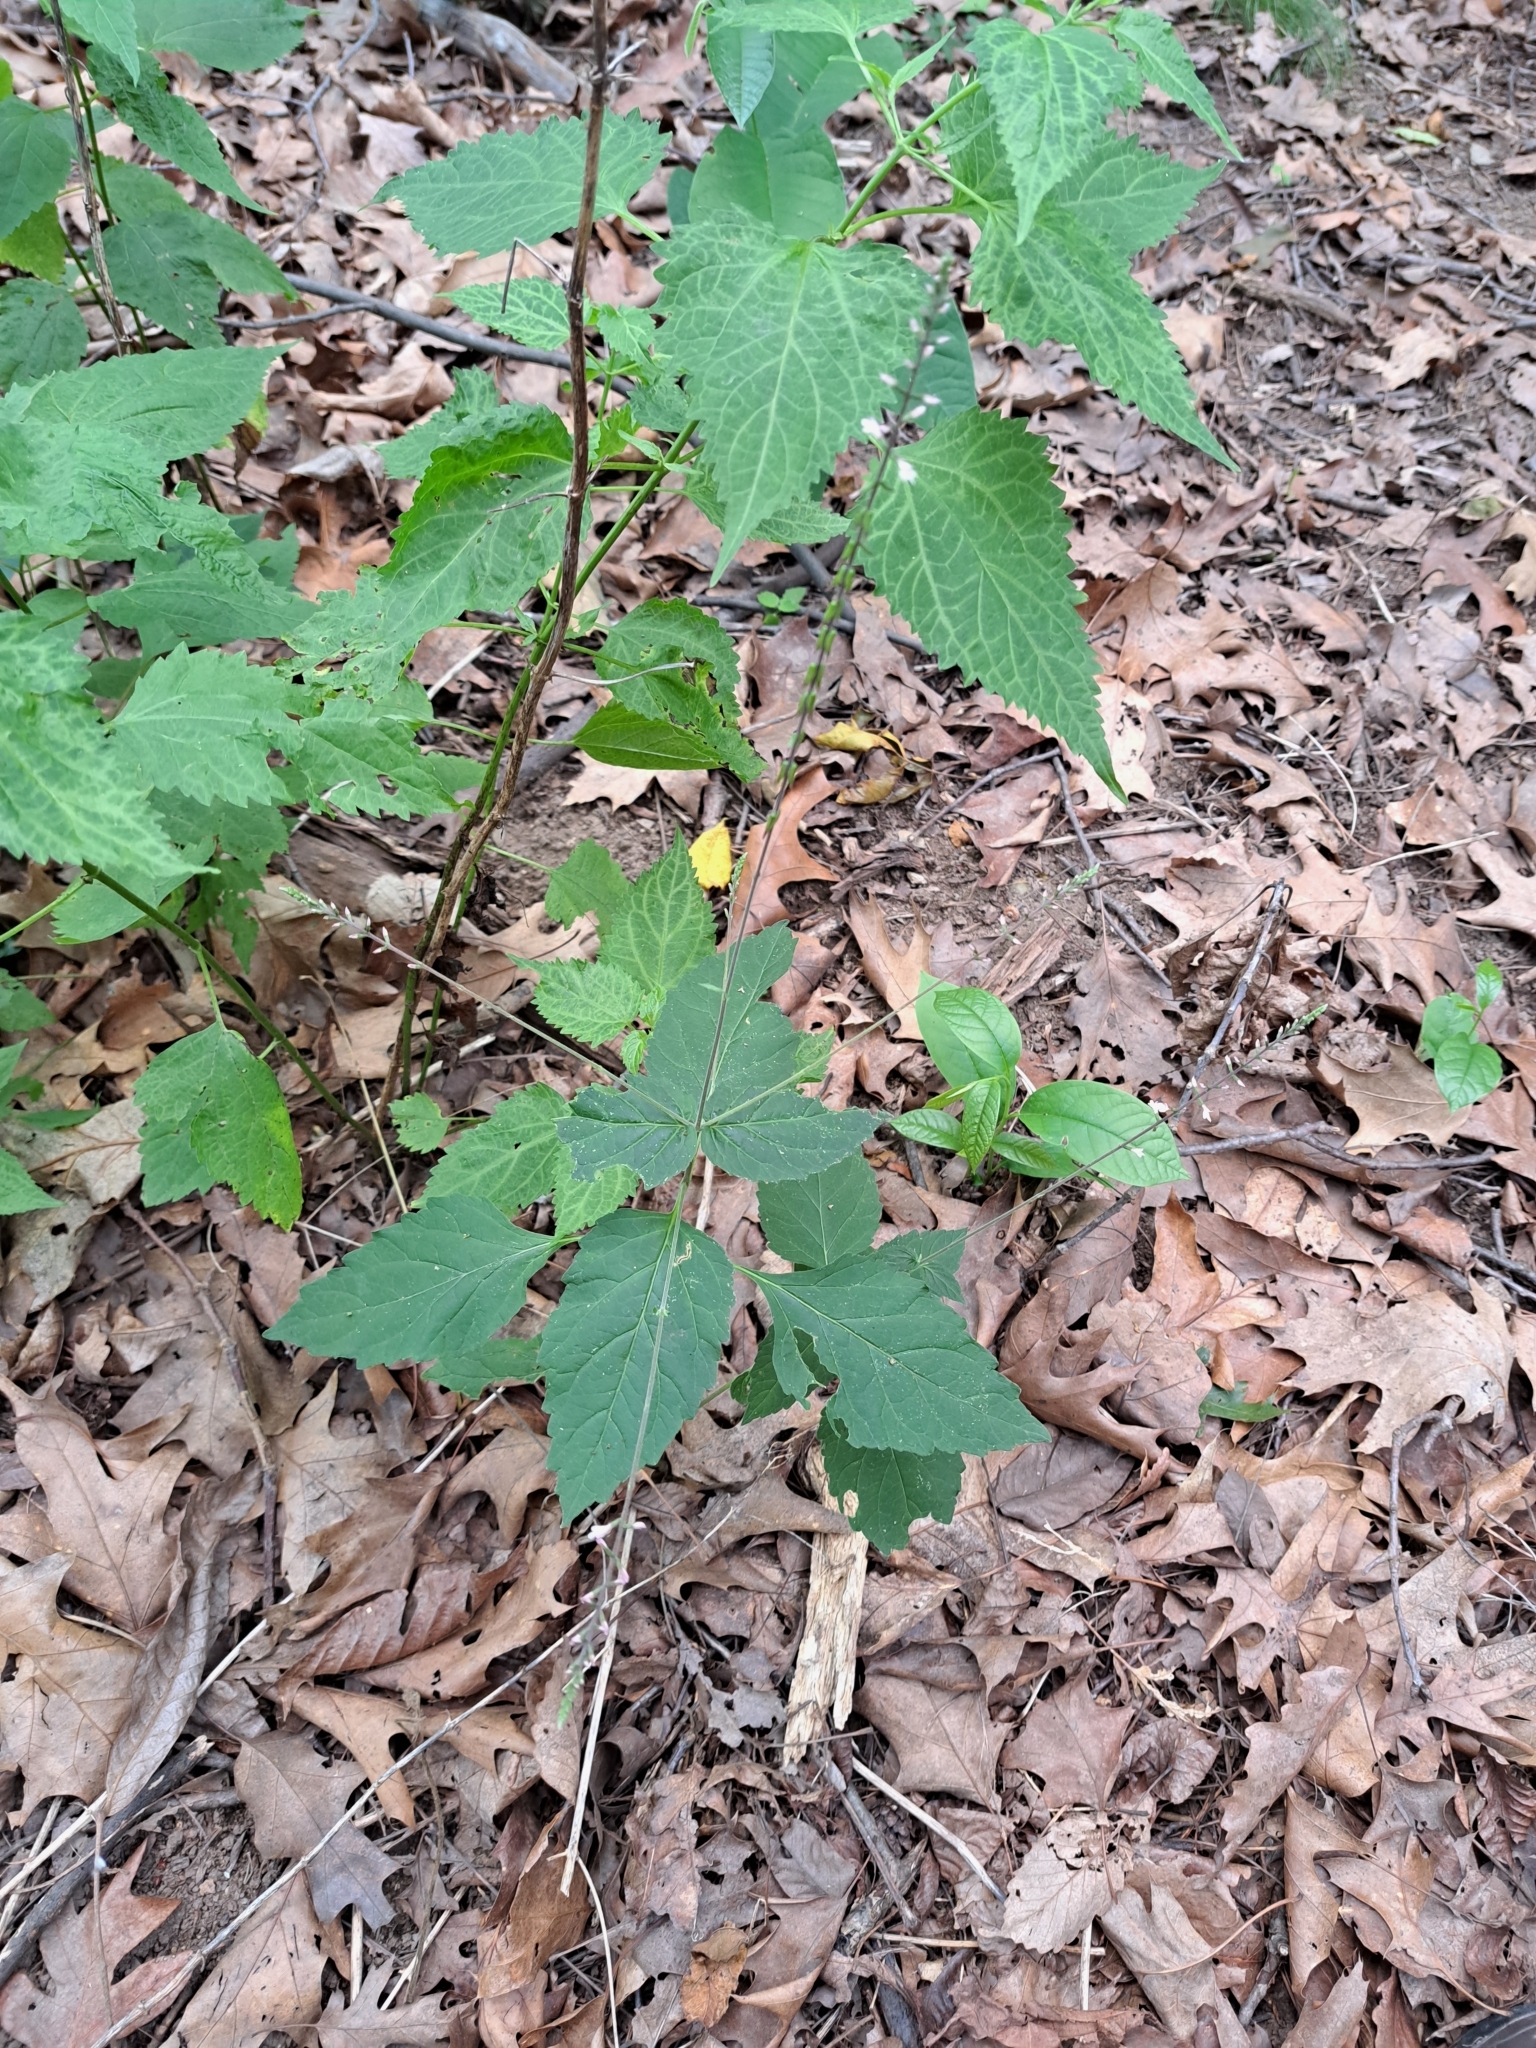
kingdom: Plantae
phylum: Tracheophyta
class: Magnoliopsida
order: Lamiales
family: Phrymaceae
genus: Phryma
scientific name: Phryma leptostachya
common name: American lopseed
